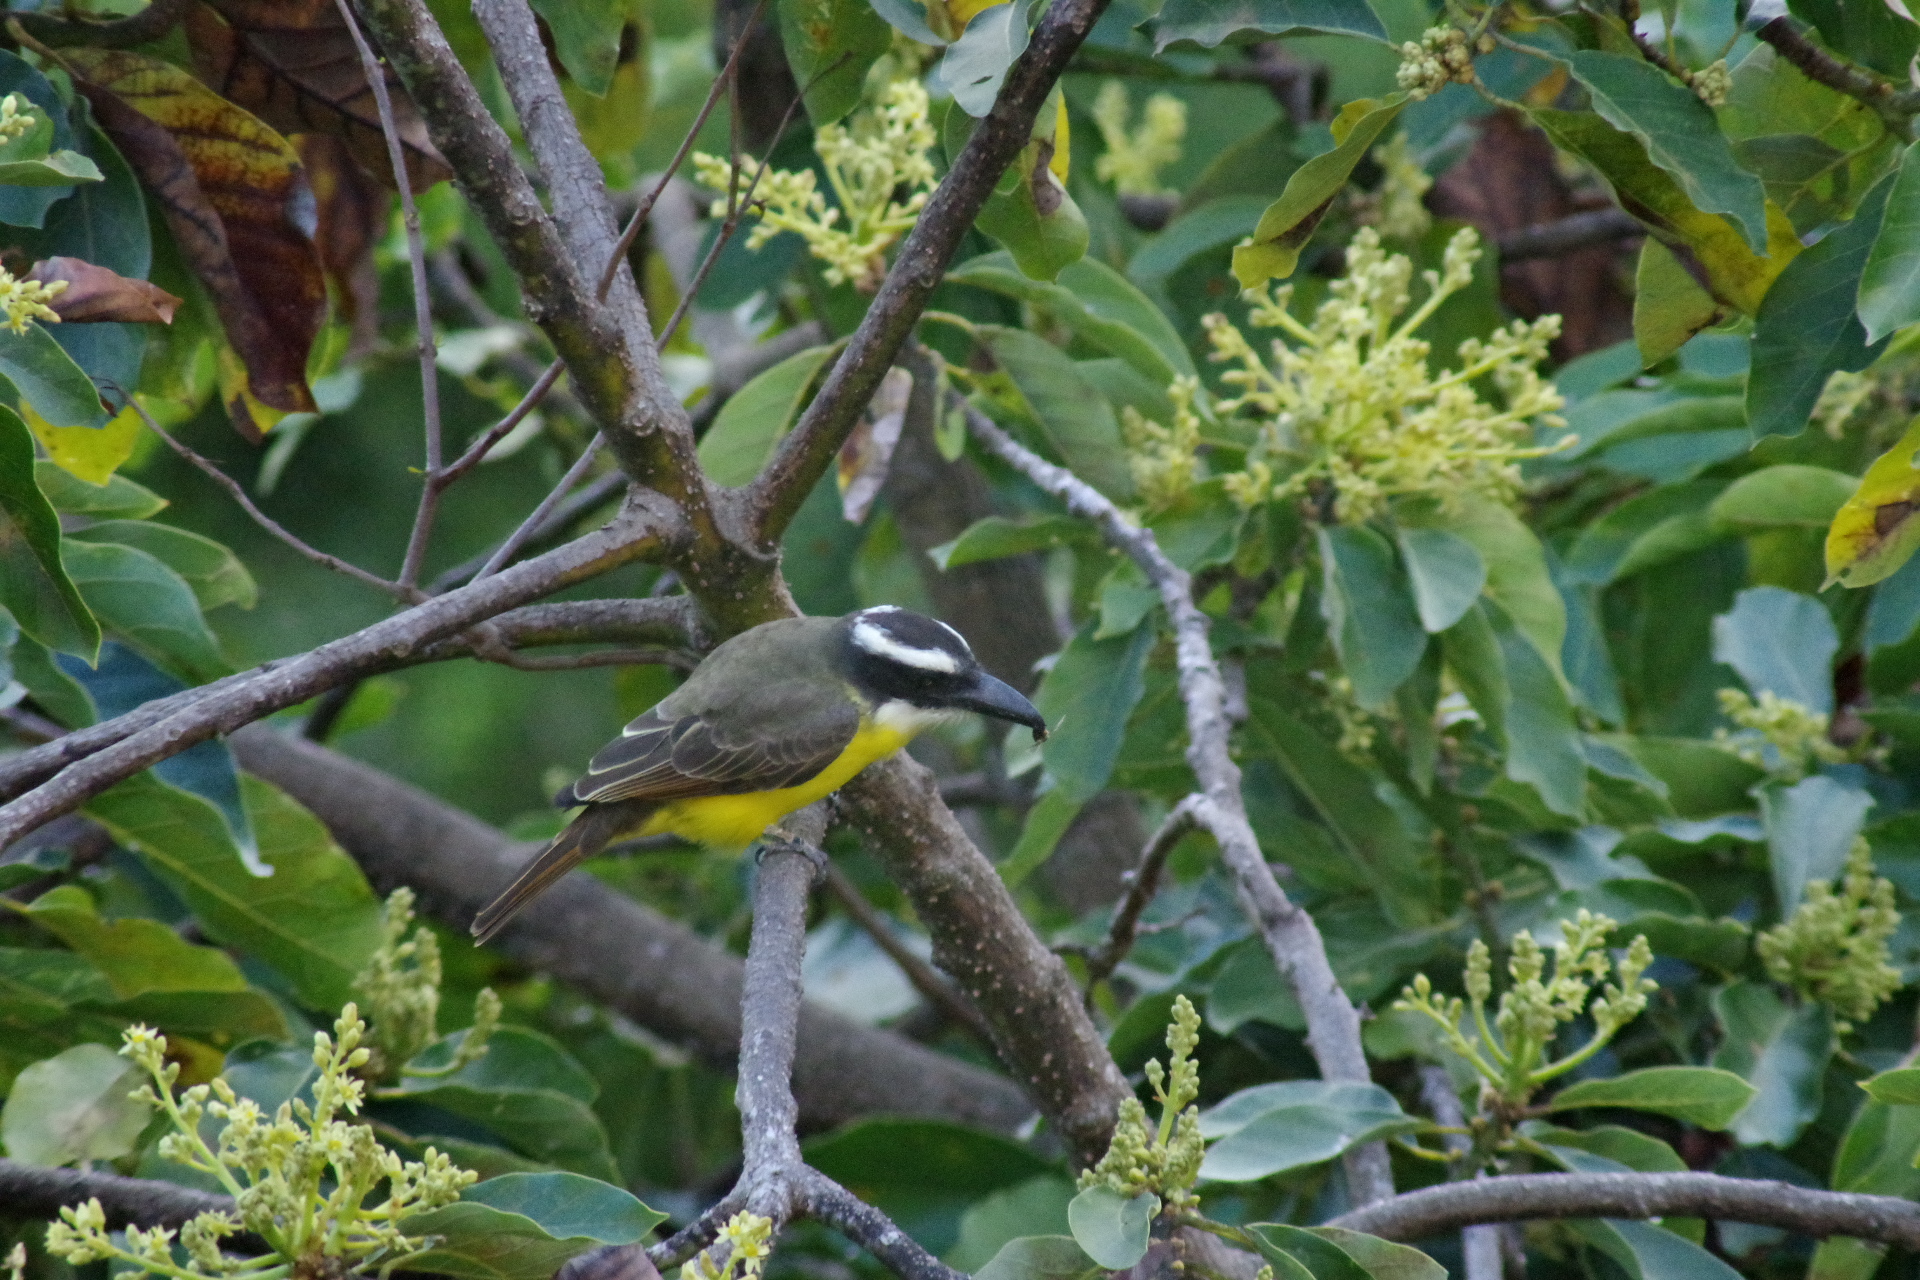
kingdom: Animalia
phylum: Chordata
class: Aves
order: Passeriformes
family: Tyrannidae
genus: Megarynchus
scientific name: Megarynchus pitangua
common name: Boat-billed flycatcher
